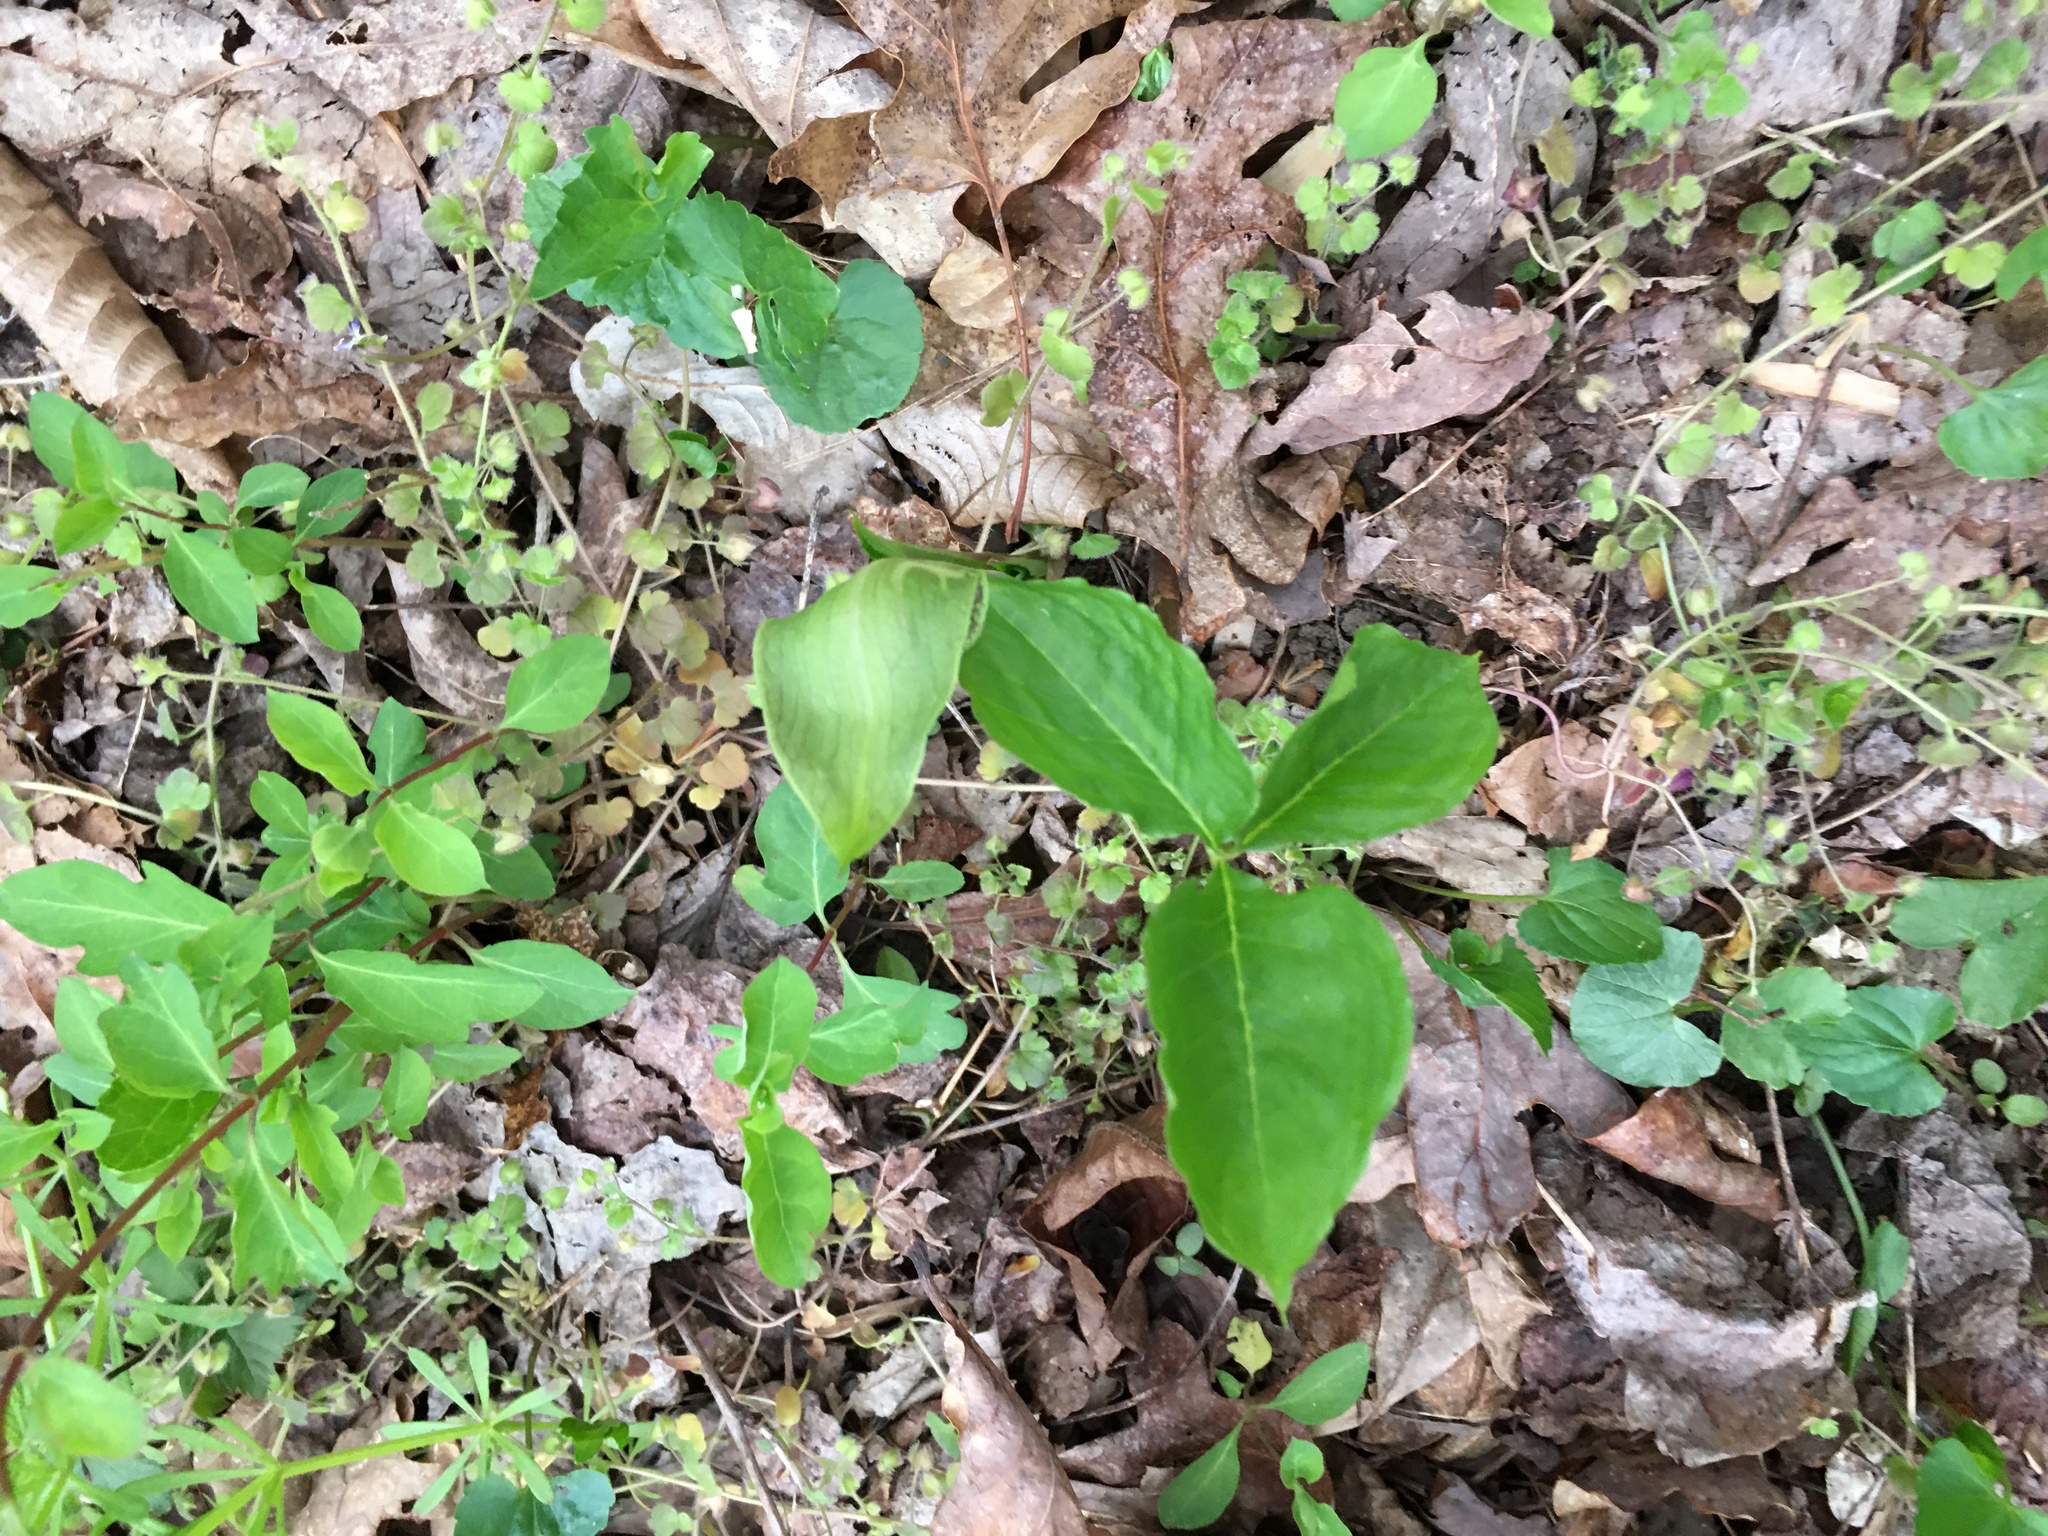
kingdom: Plantae
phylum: Tracheophyta
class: Liliopsida
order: Alismatales
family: Araceae
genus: Arisaema
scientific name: Arisaema triphyllum
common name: Jack-in-the-pulpit
